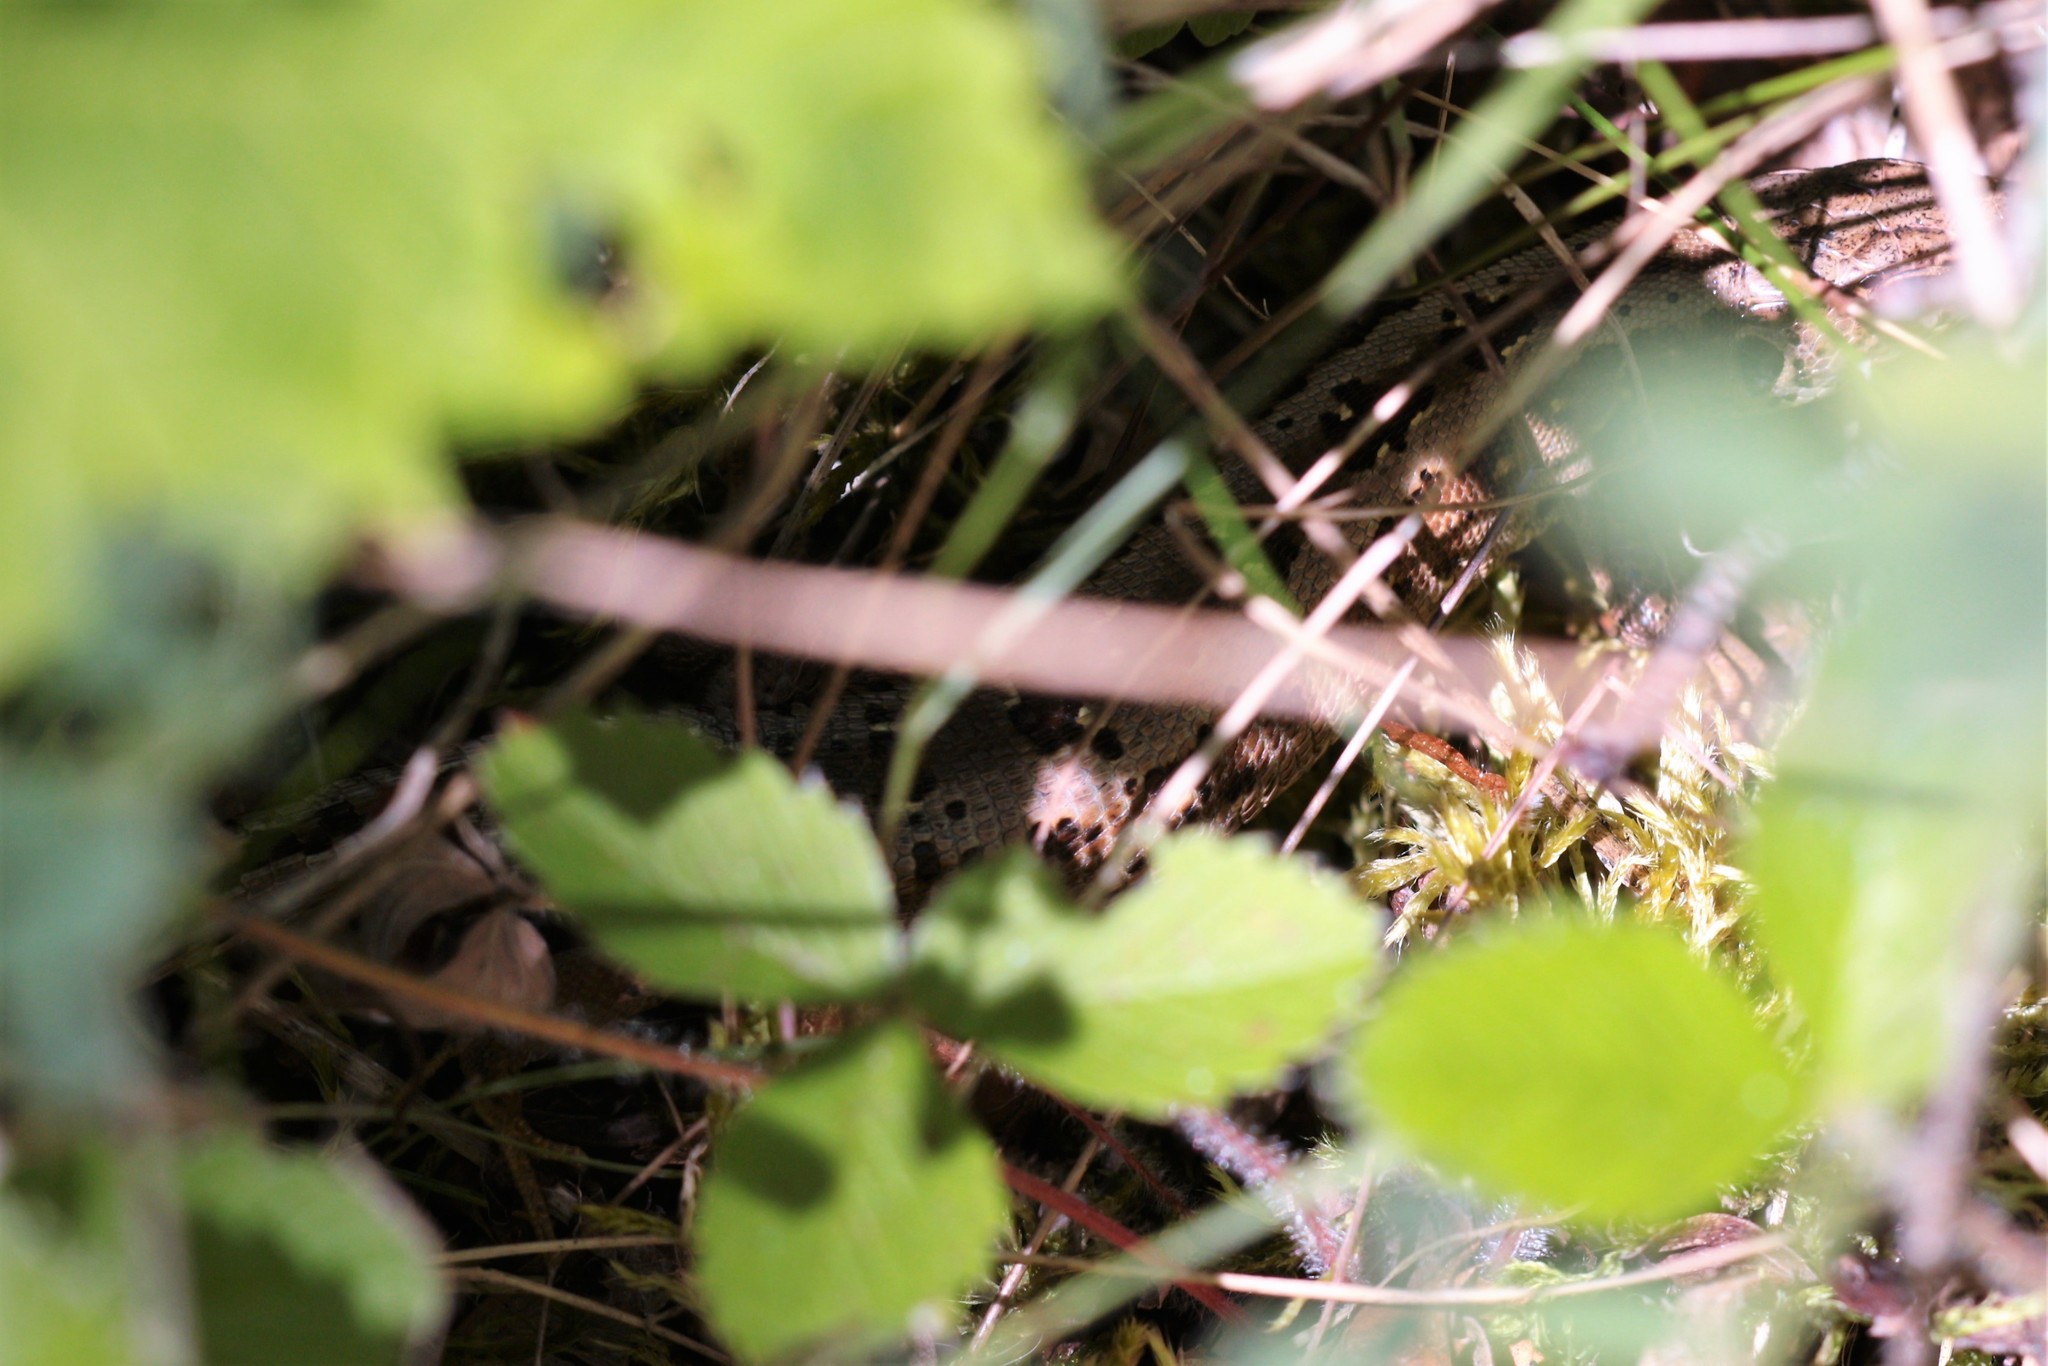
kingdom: Animalia
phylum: Chordata
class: Squamata
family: Lacertidae
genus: Lacerta
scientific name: Lacerta agilis
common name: Sand lizard
